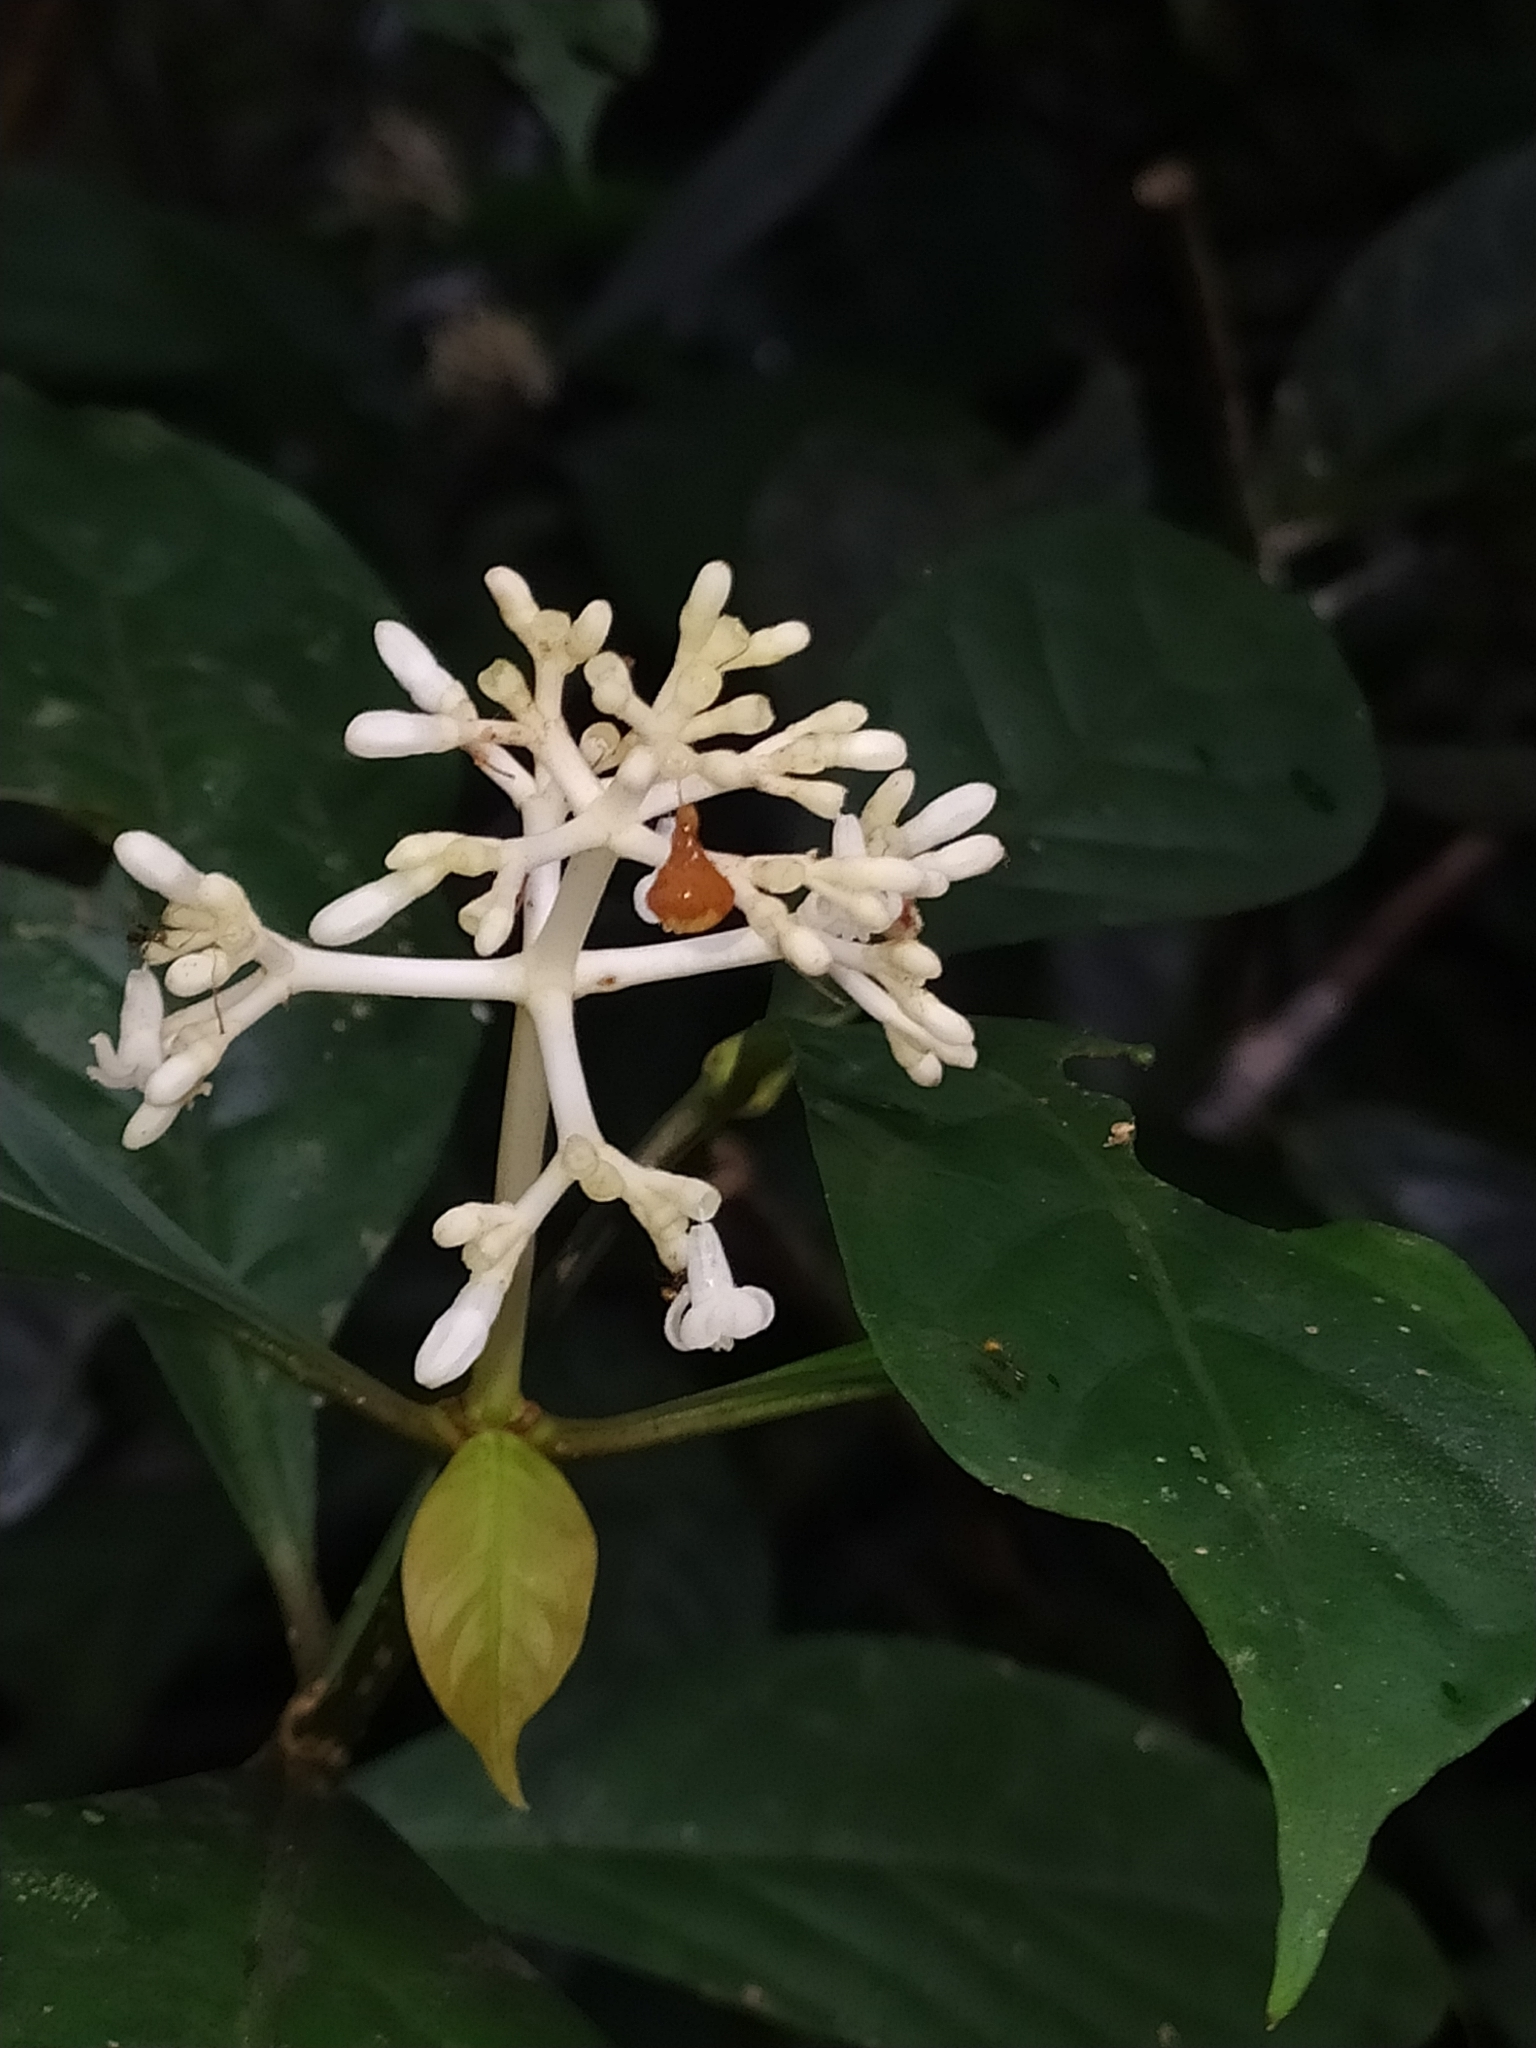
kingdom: Plantae
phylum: Tracheophyta
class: Magnoliopsida
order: Gentianales
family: Rubiaceae
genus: Psychotria
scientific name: Psychotria cupularis
